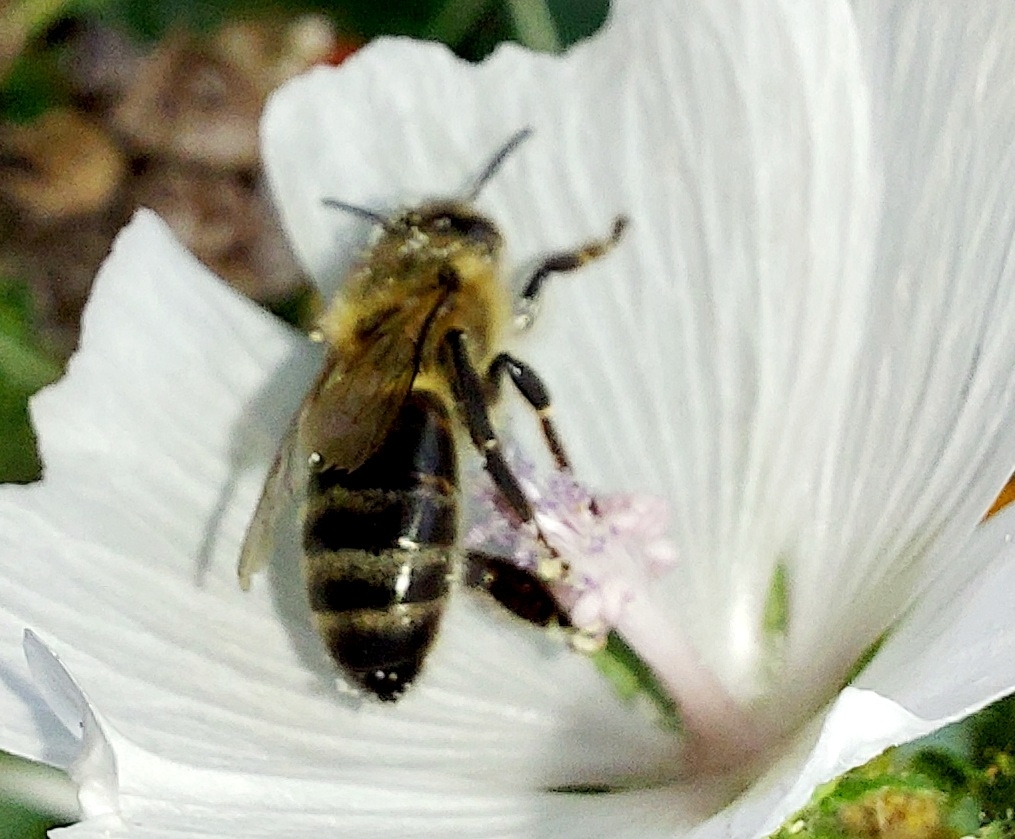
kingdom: Animalia
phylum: Arthropoda
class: Insecta
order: Hymenoptera
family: Apidae
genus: Apis
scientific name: Apis mellifera
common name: Honey bee
